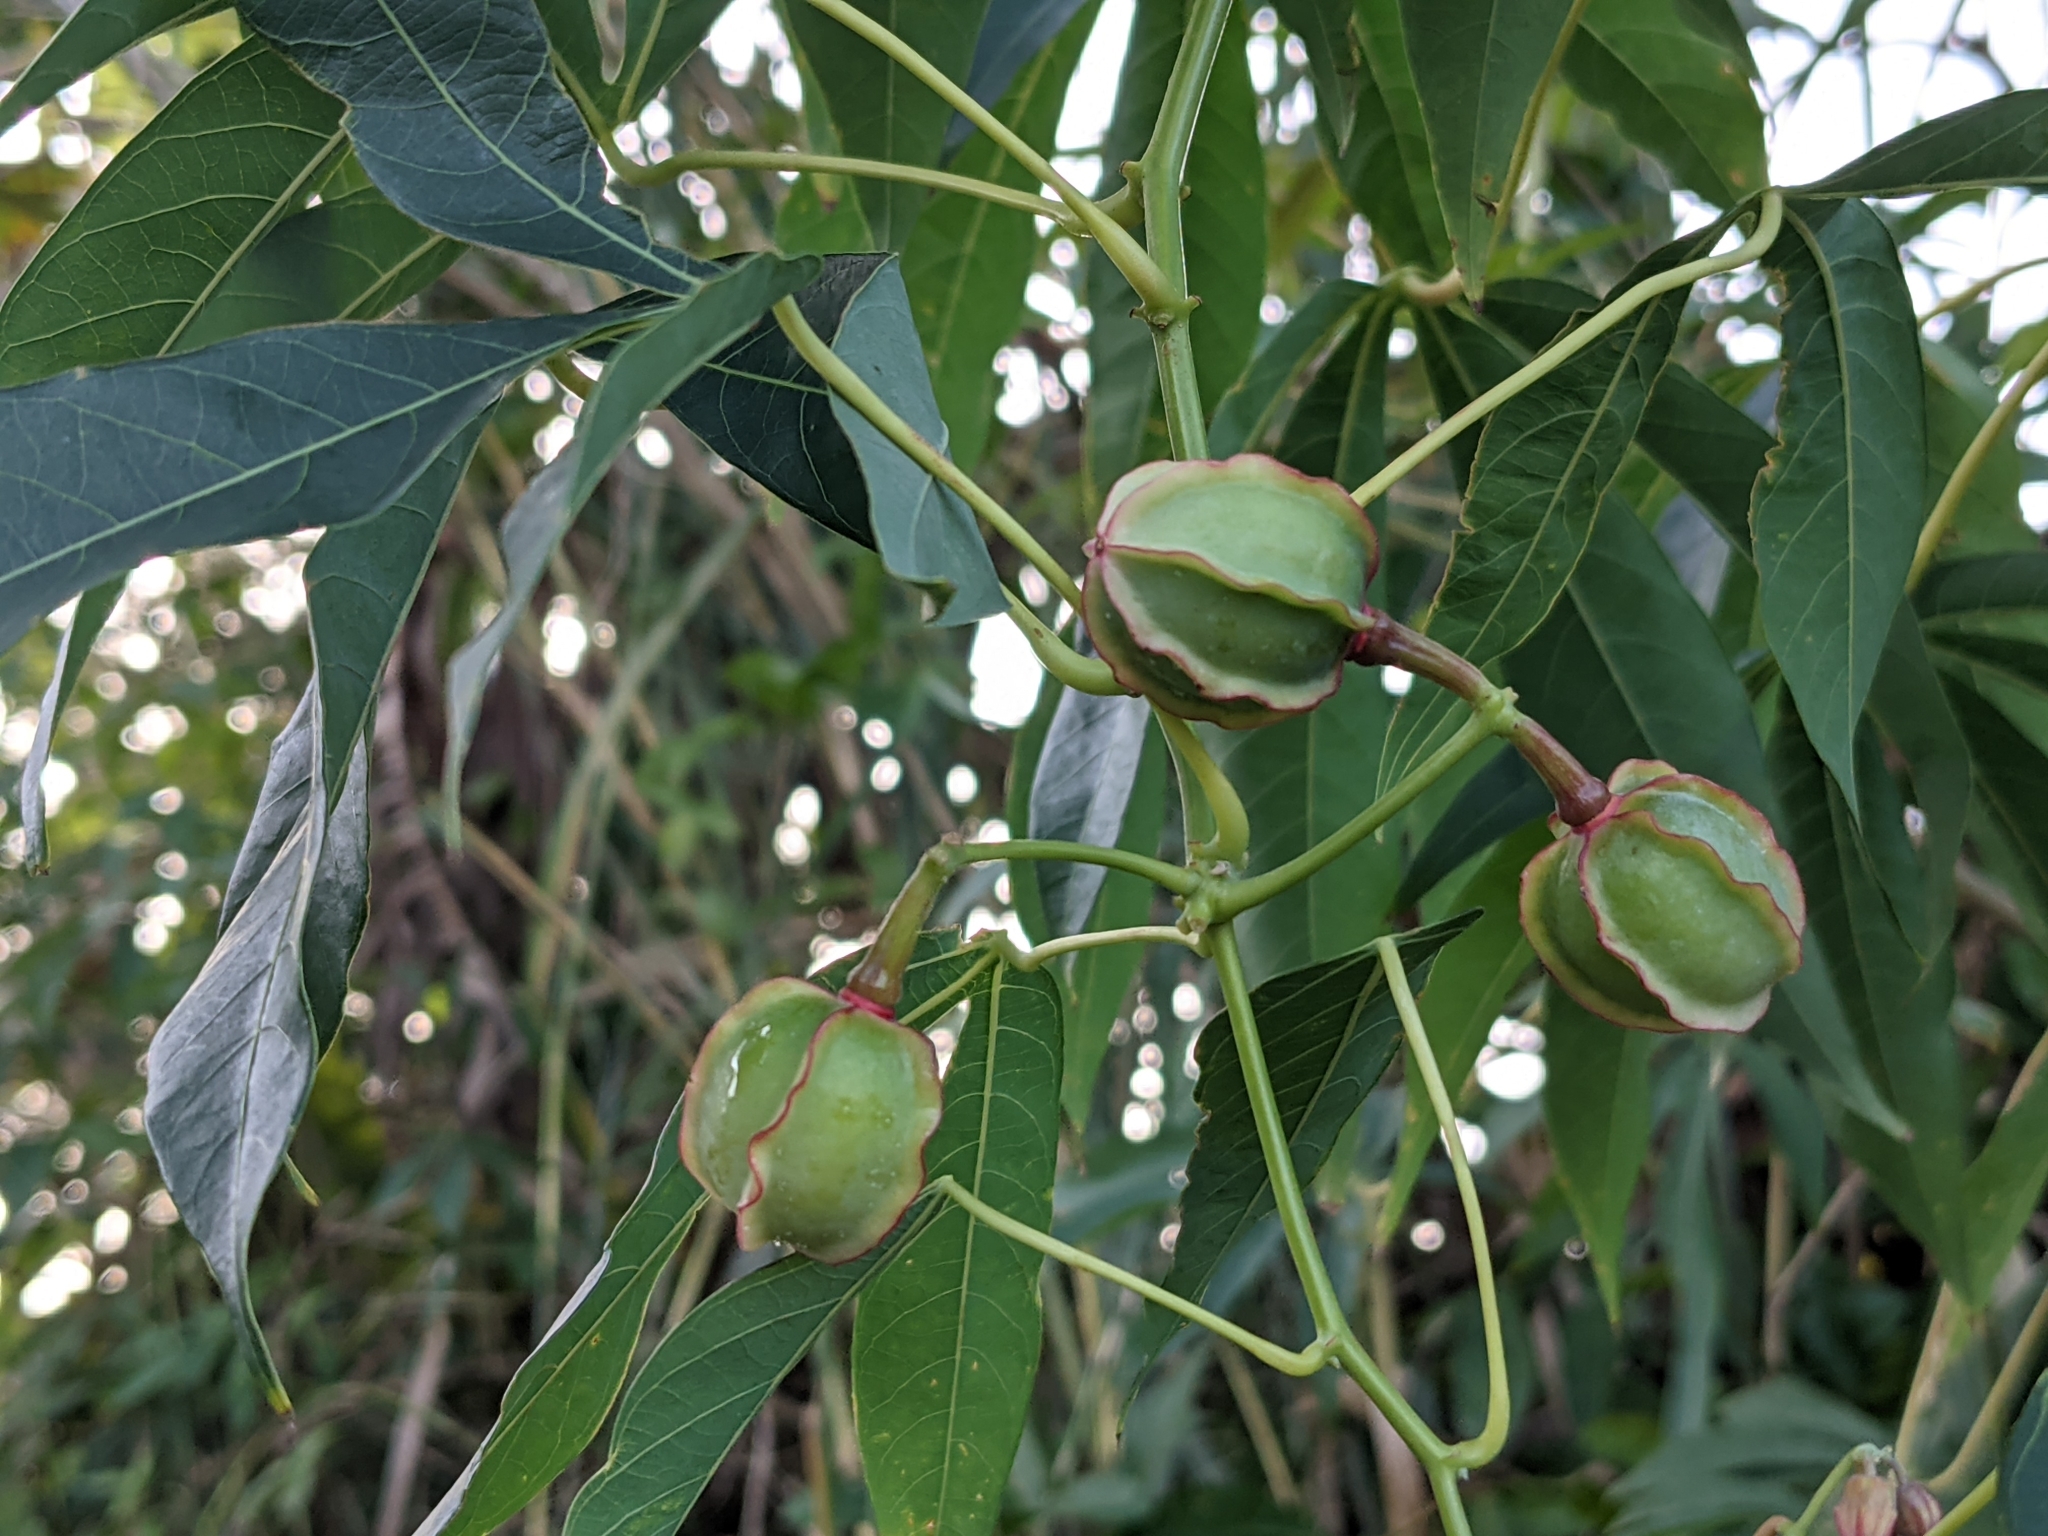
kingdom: Plantae
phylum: Tracheophyta
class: Magnoliopsida
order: Malpighiales
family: Euphorbiaceae
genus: Manihot
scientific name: Manihot esculenta
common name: Cassava
